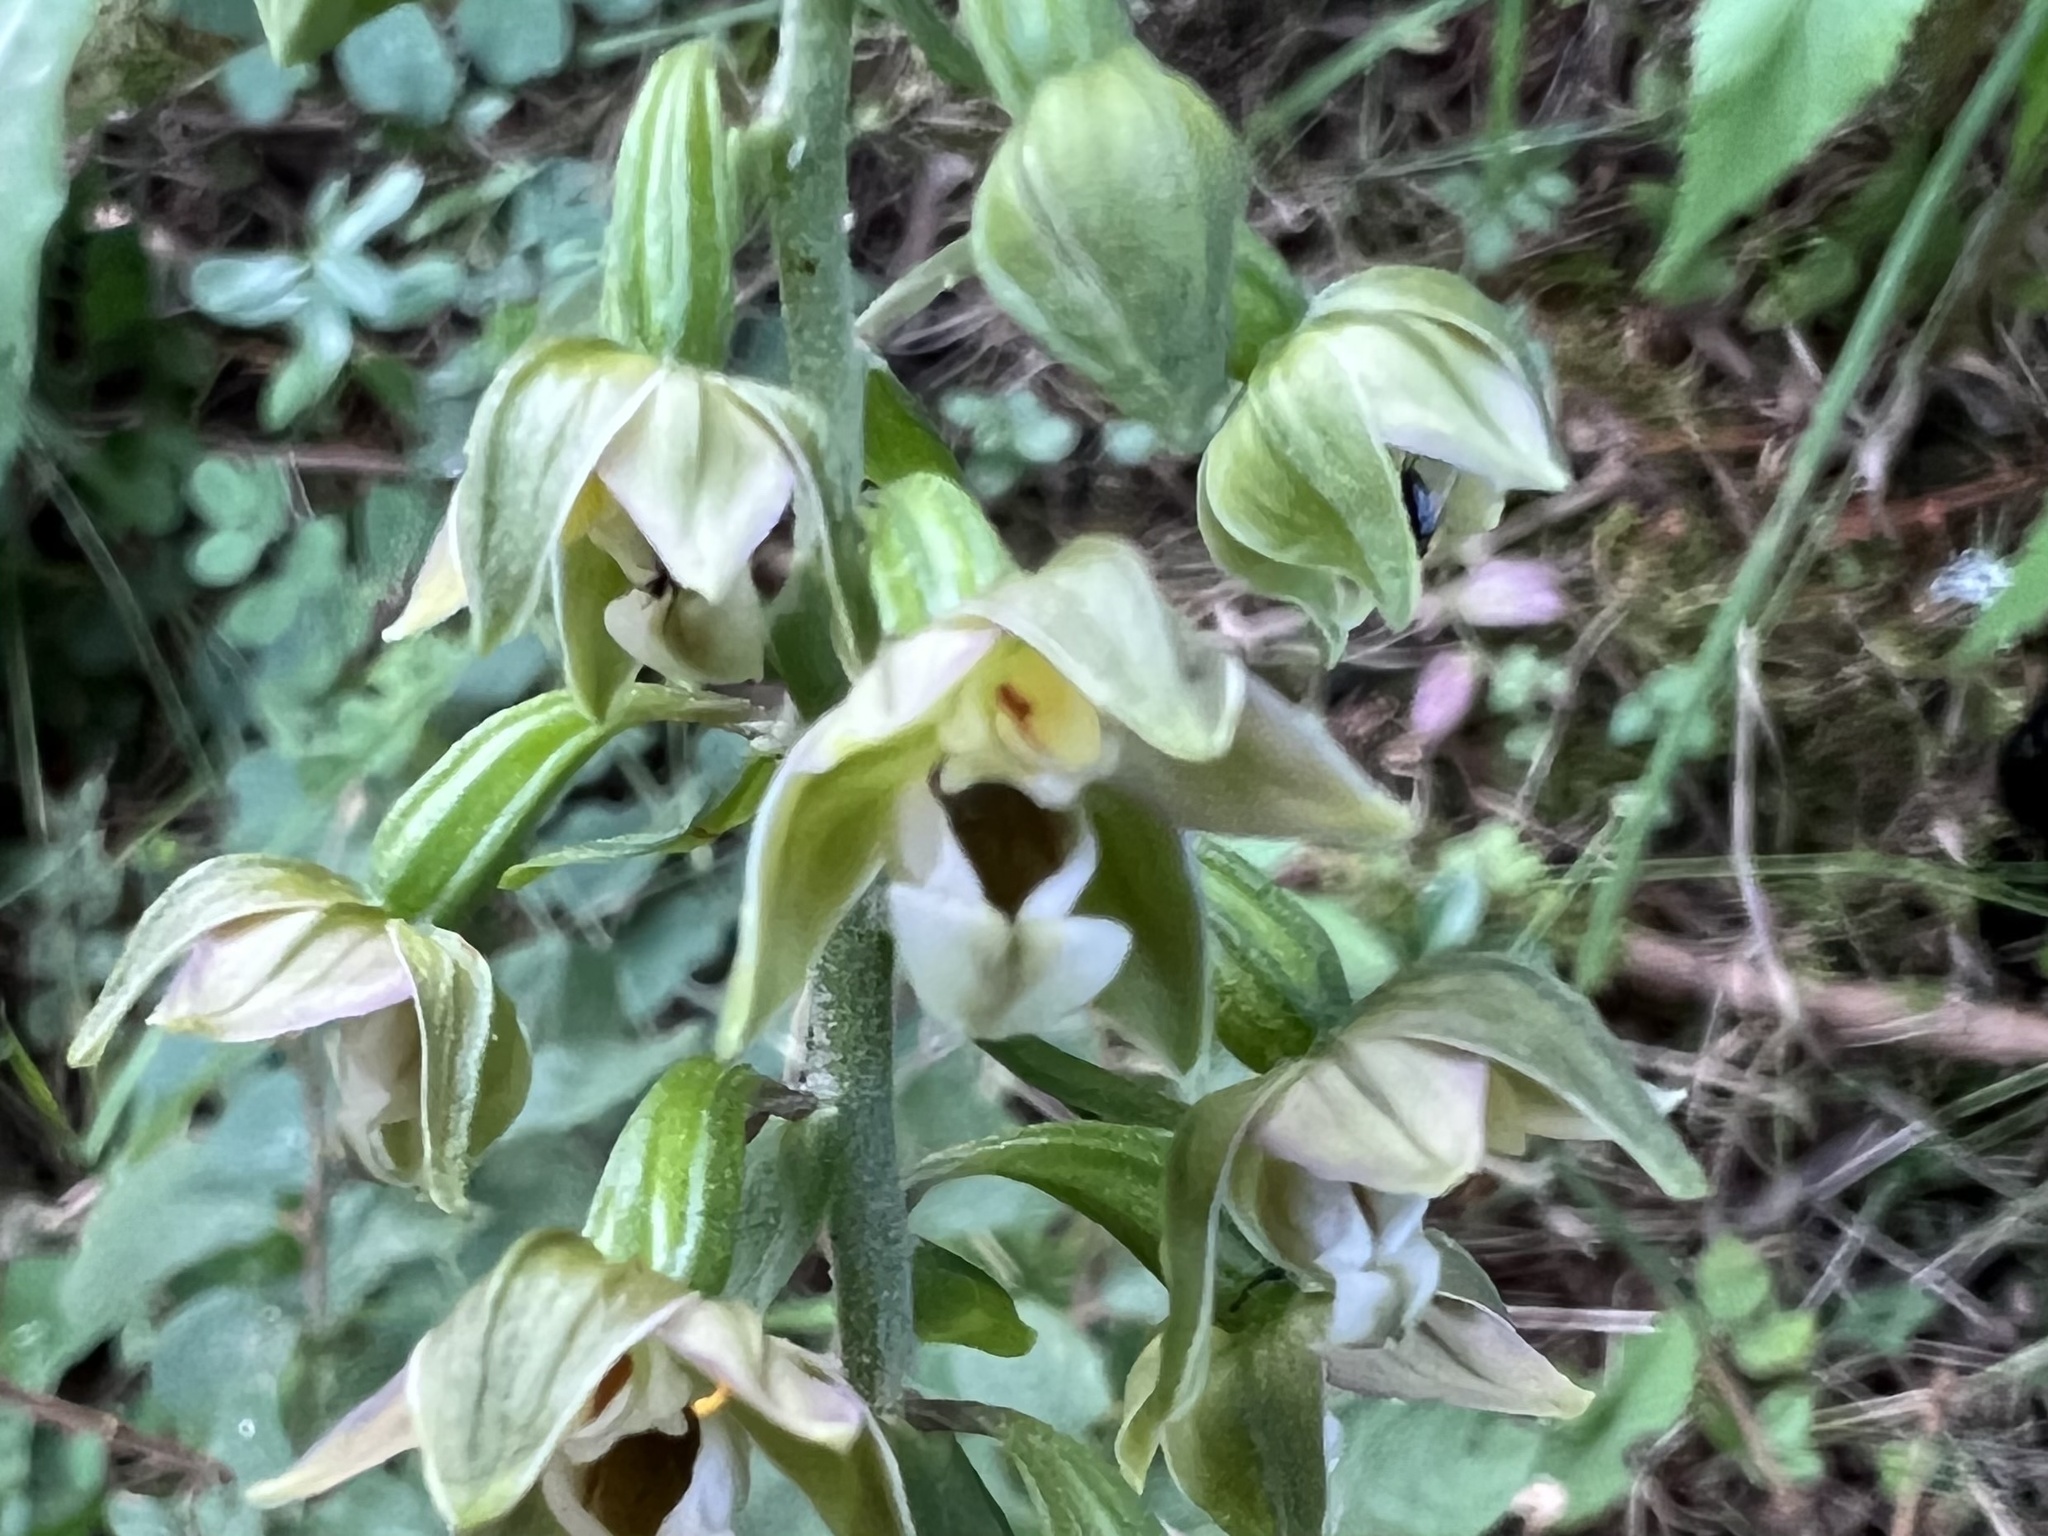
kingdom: Plantae
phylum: Tracheophyta
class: Liliopsida
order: Asparagales
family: Orchidaceae
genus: Epipactis
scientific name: Epipactis helleborine
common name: Broad-leaved helleborine
